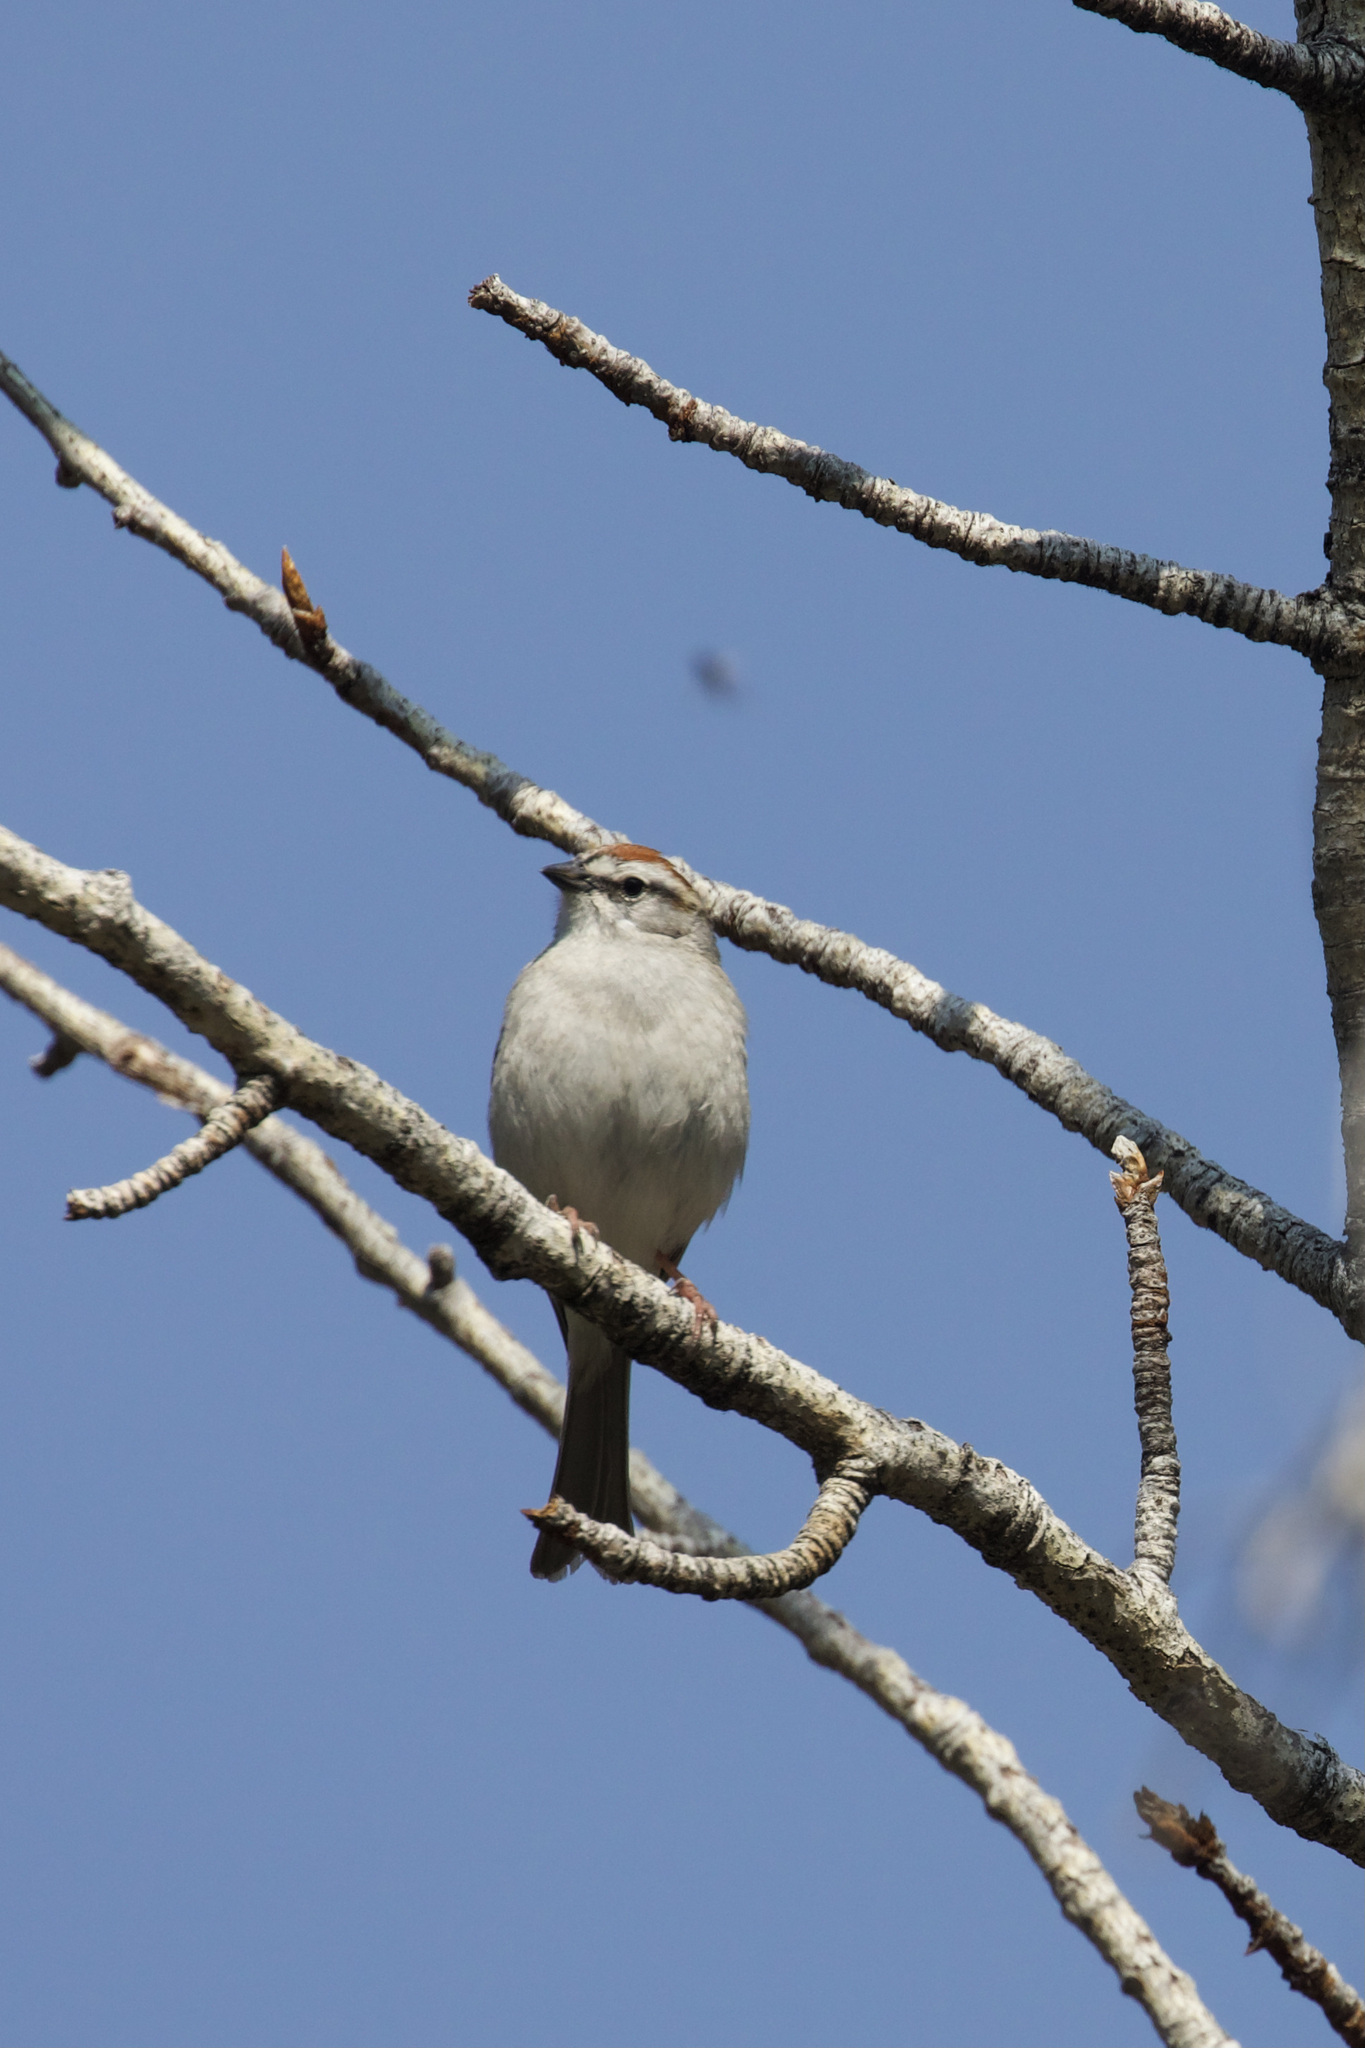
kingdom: Animalia
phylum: Chordata
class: Aves
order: Passeriformes
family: Passerellidae
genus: Spizella
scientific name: Spizella passerina
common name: Chipping sparrow
